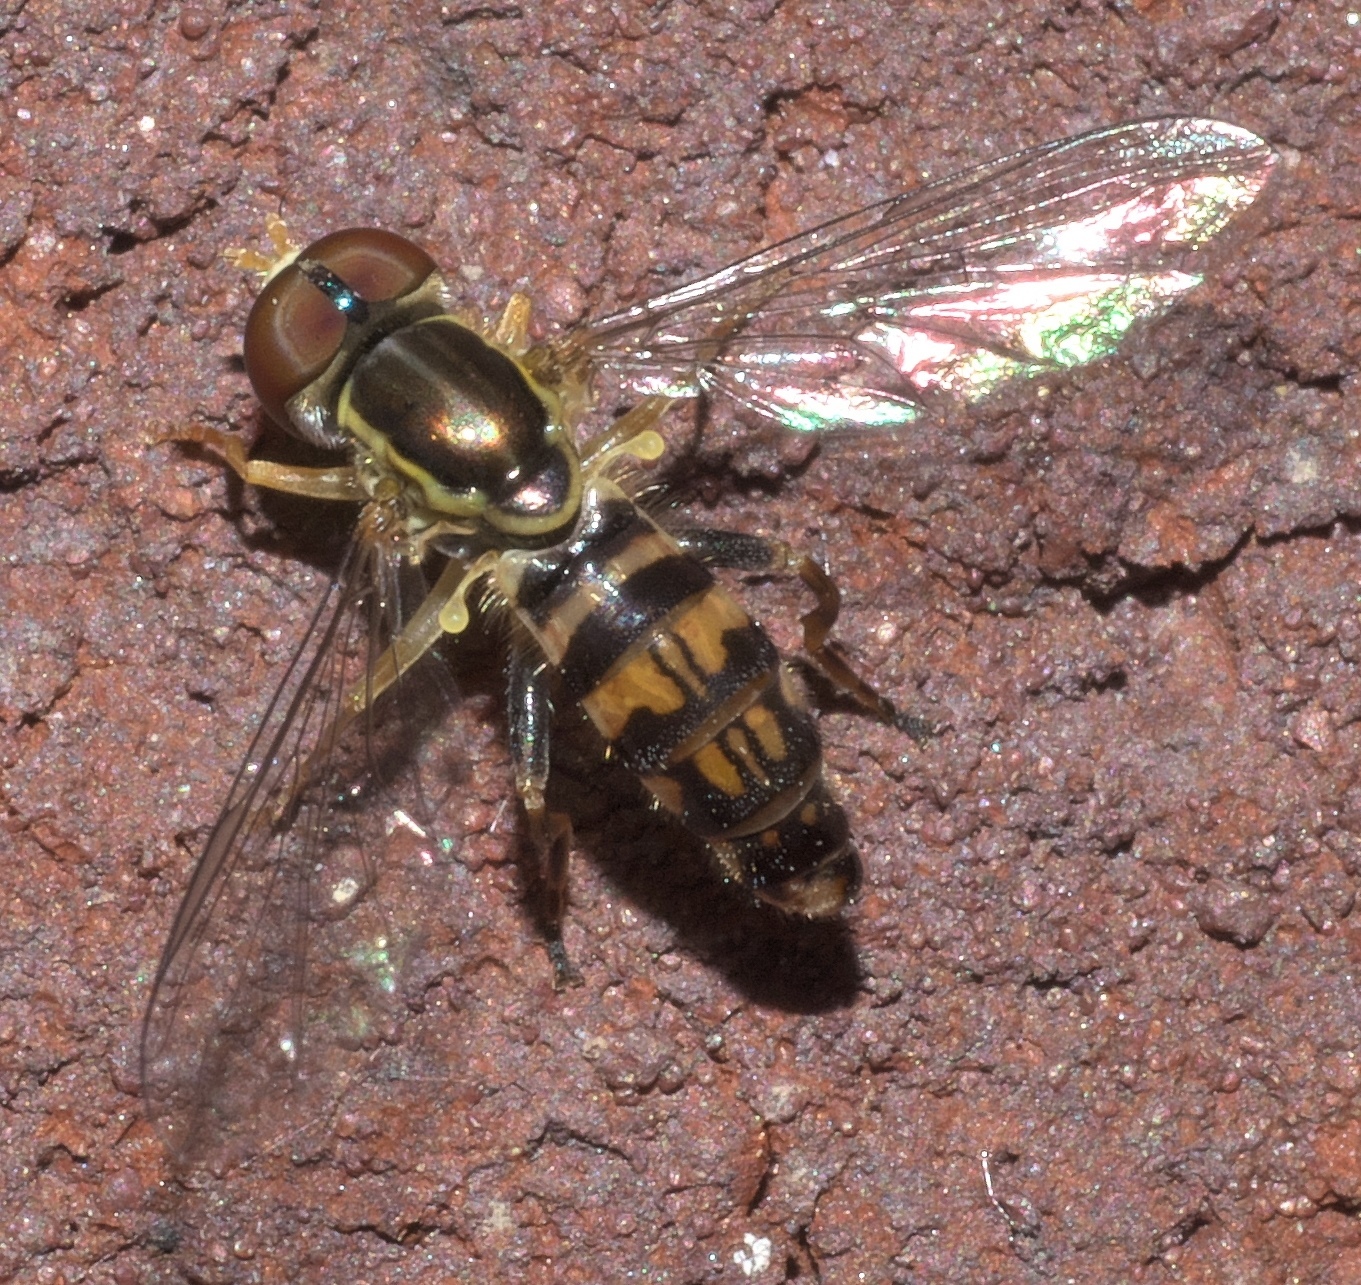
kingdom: Animalia
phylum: Arthropoda
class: Insecta
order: Diptera
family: Syrphidae
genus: Toxomerus
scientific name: Toxomerus geminatus
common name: Eastern calligrapher
